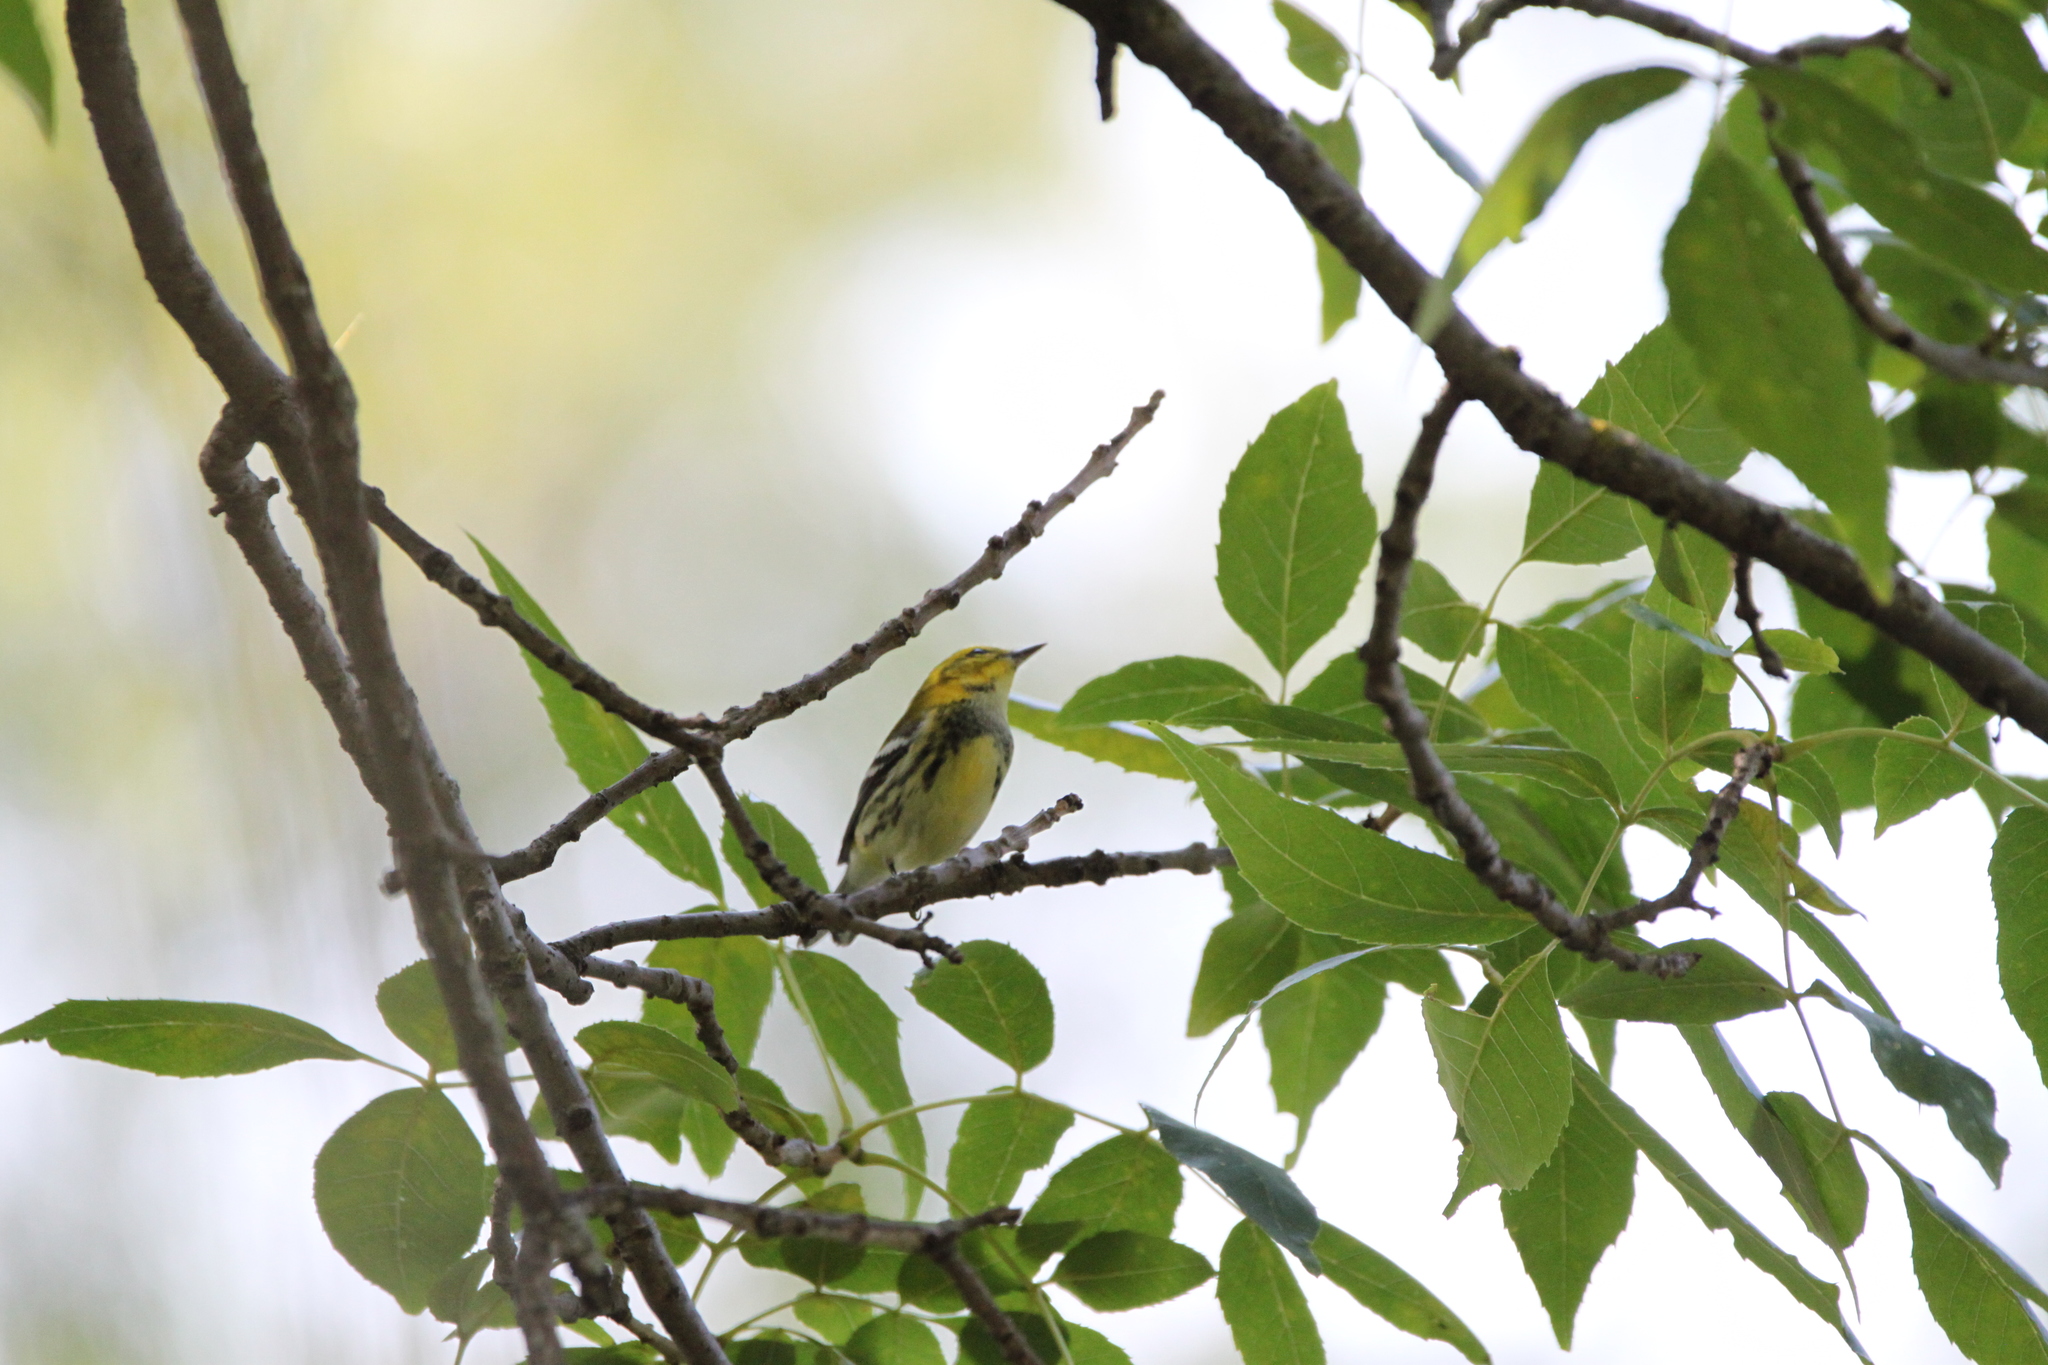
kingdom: Animalia
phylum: Chordata
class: Aves
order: Passeriformes
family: Parulidae
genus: Setophaga
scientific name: Setophaga virens
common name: Black-throated green warbler
